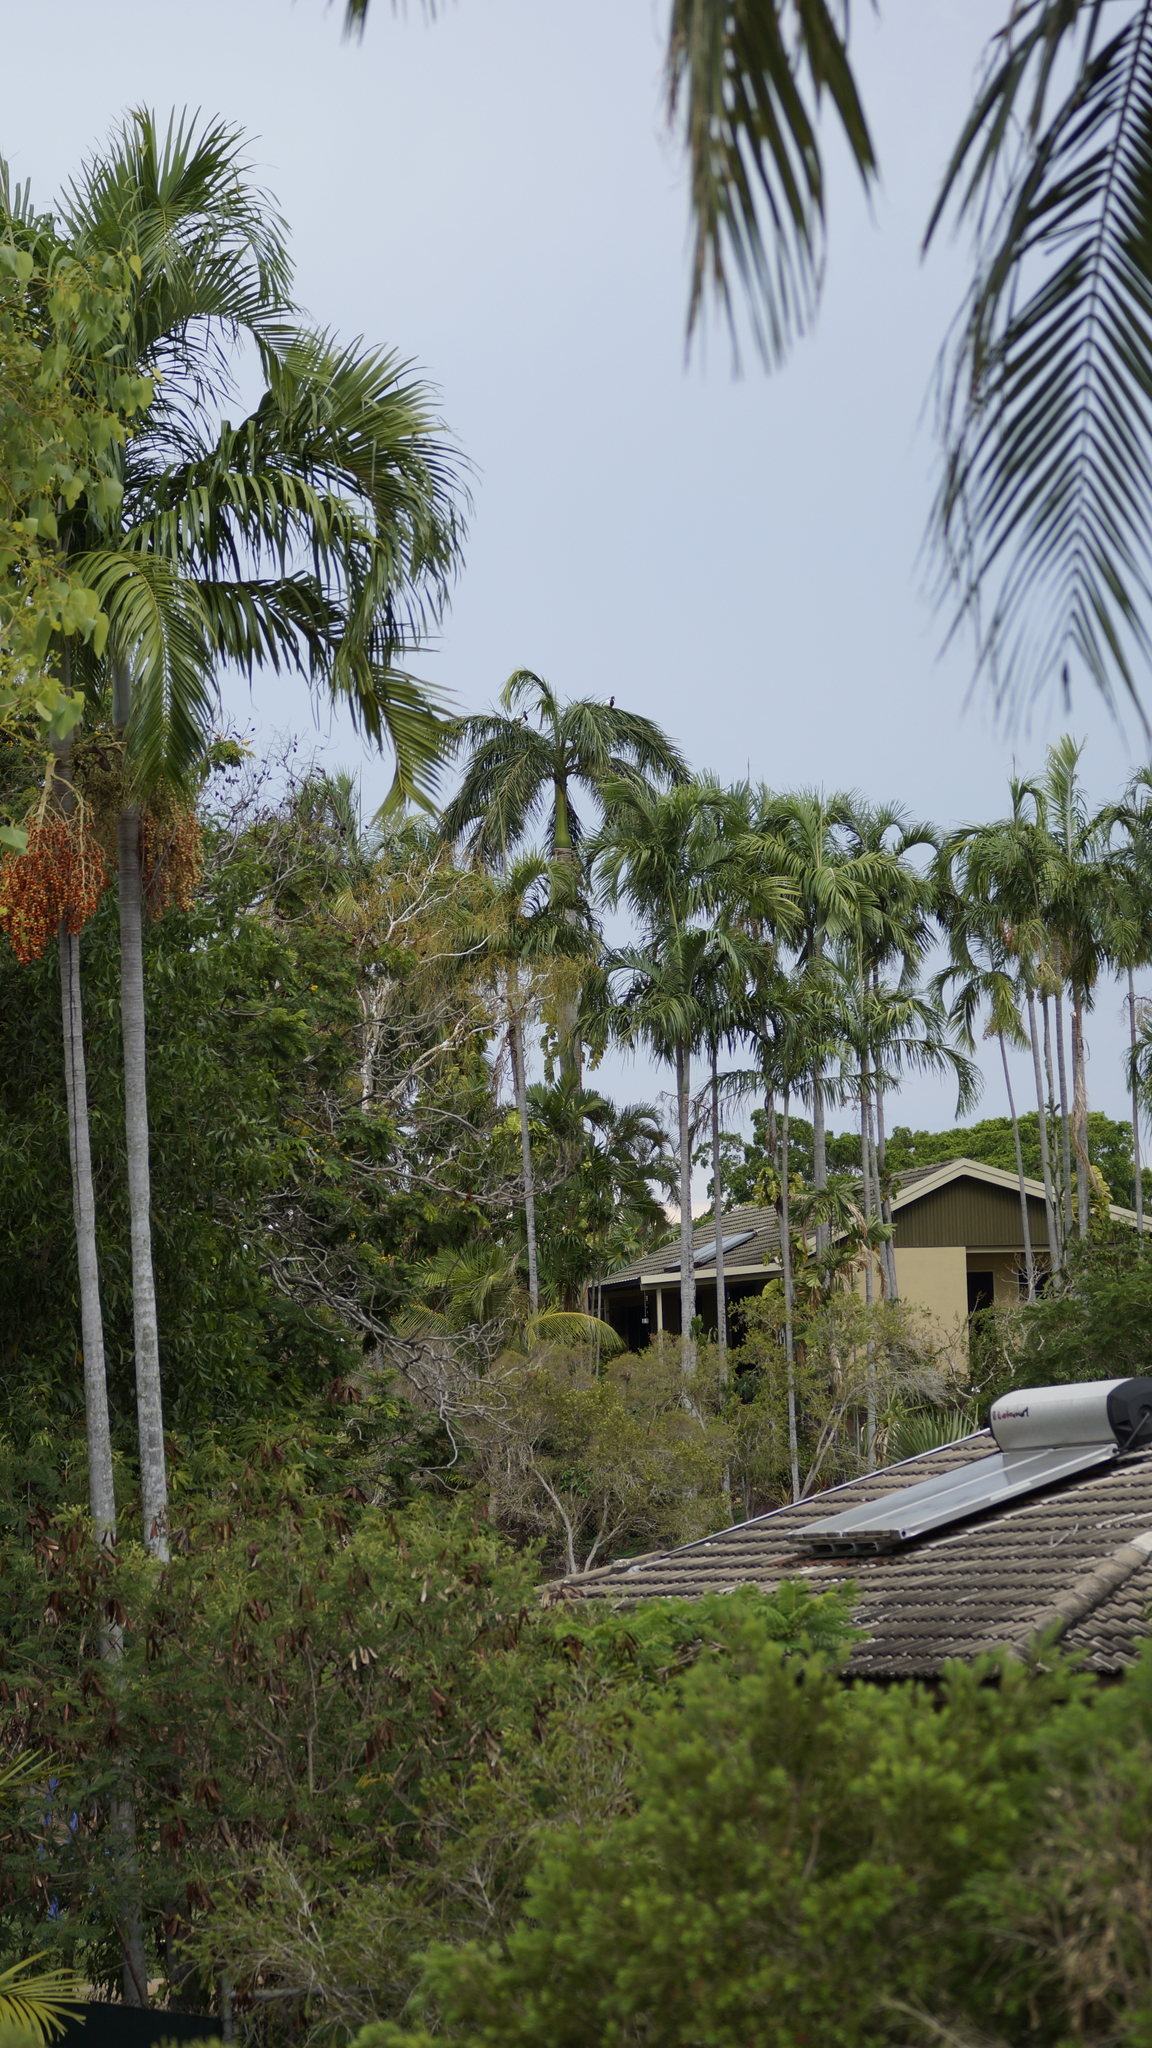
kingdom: Animalia
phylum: Chordata
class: Aves
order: Anseriformes
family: Anseranatidae
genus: Anseranas
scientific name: Anseranas semipalmata
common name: Magpie goose
